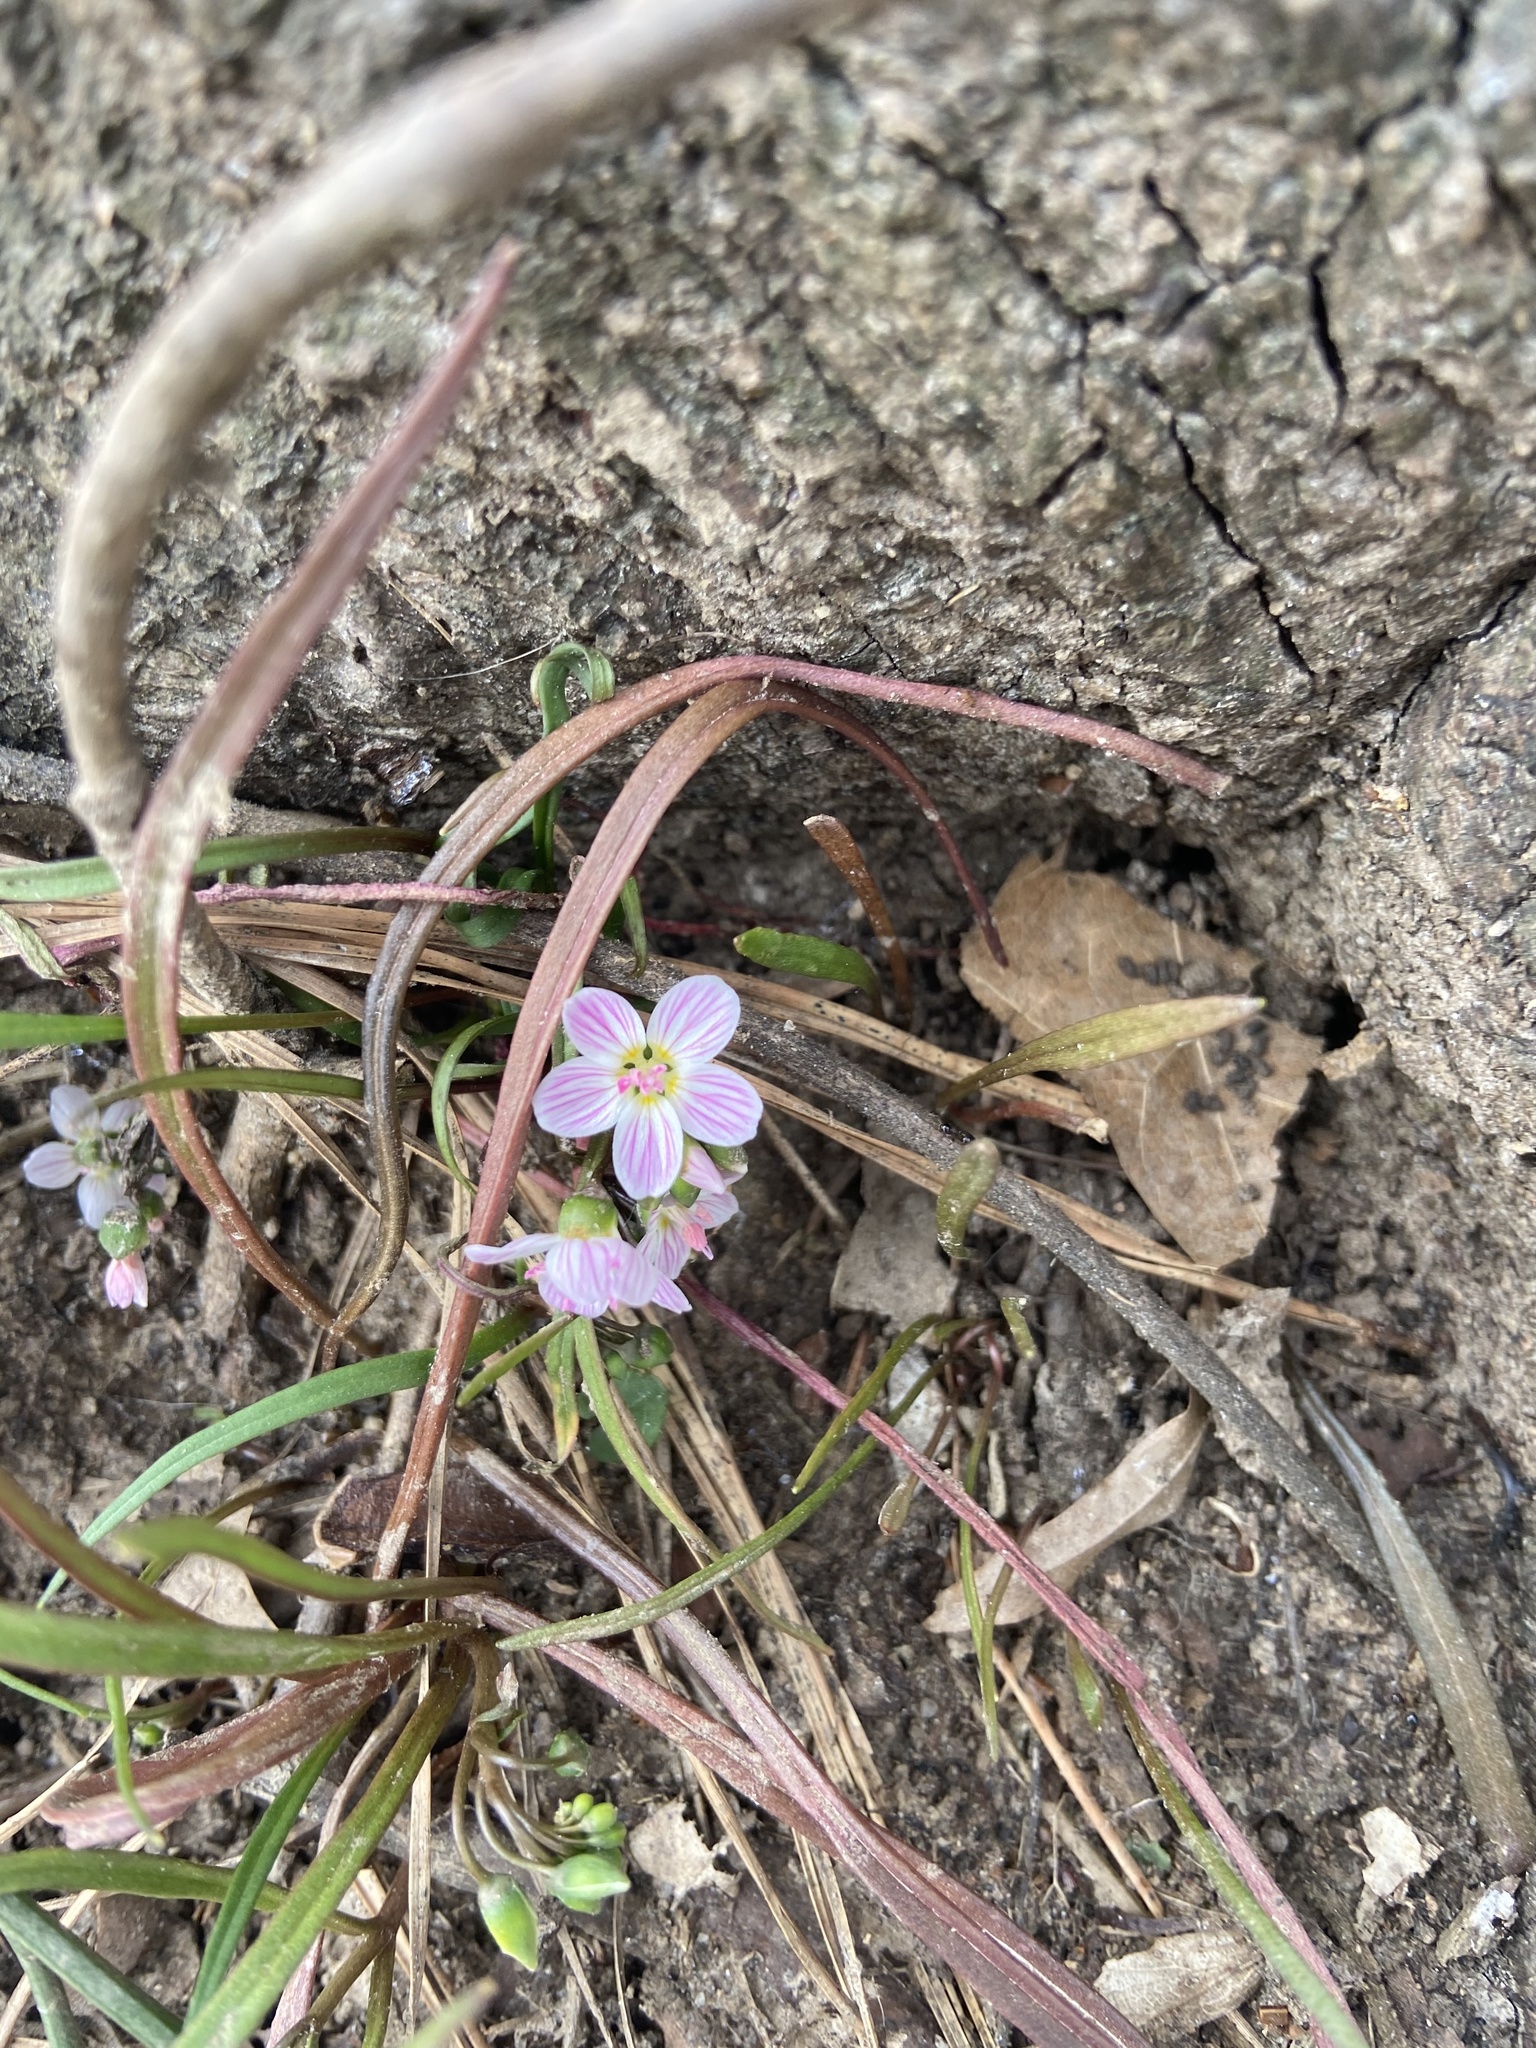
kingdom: Plantae
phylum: Tracheophyta
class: Magnoliopsida
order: Caryophyllales
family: Montiaceae
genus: Claytonia
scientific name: Claytonia virginica
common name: Virginia springbeauty
